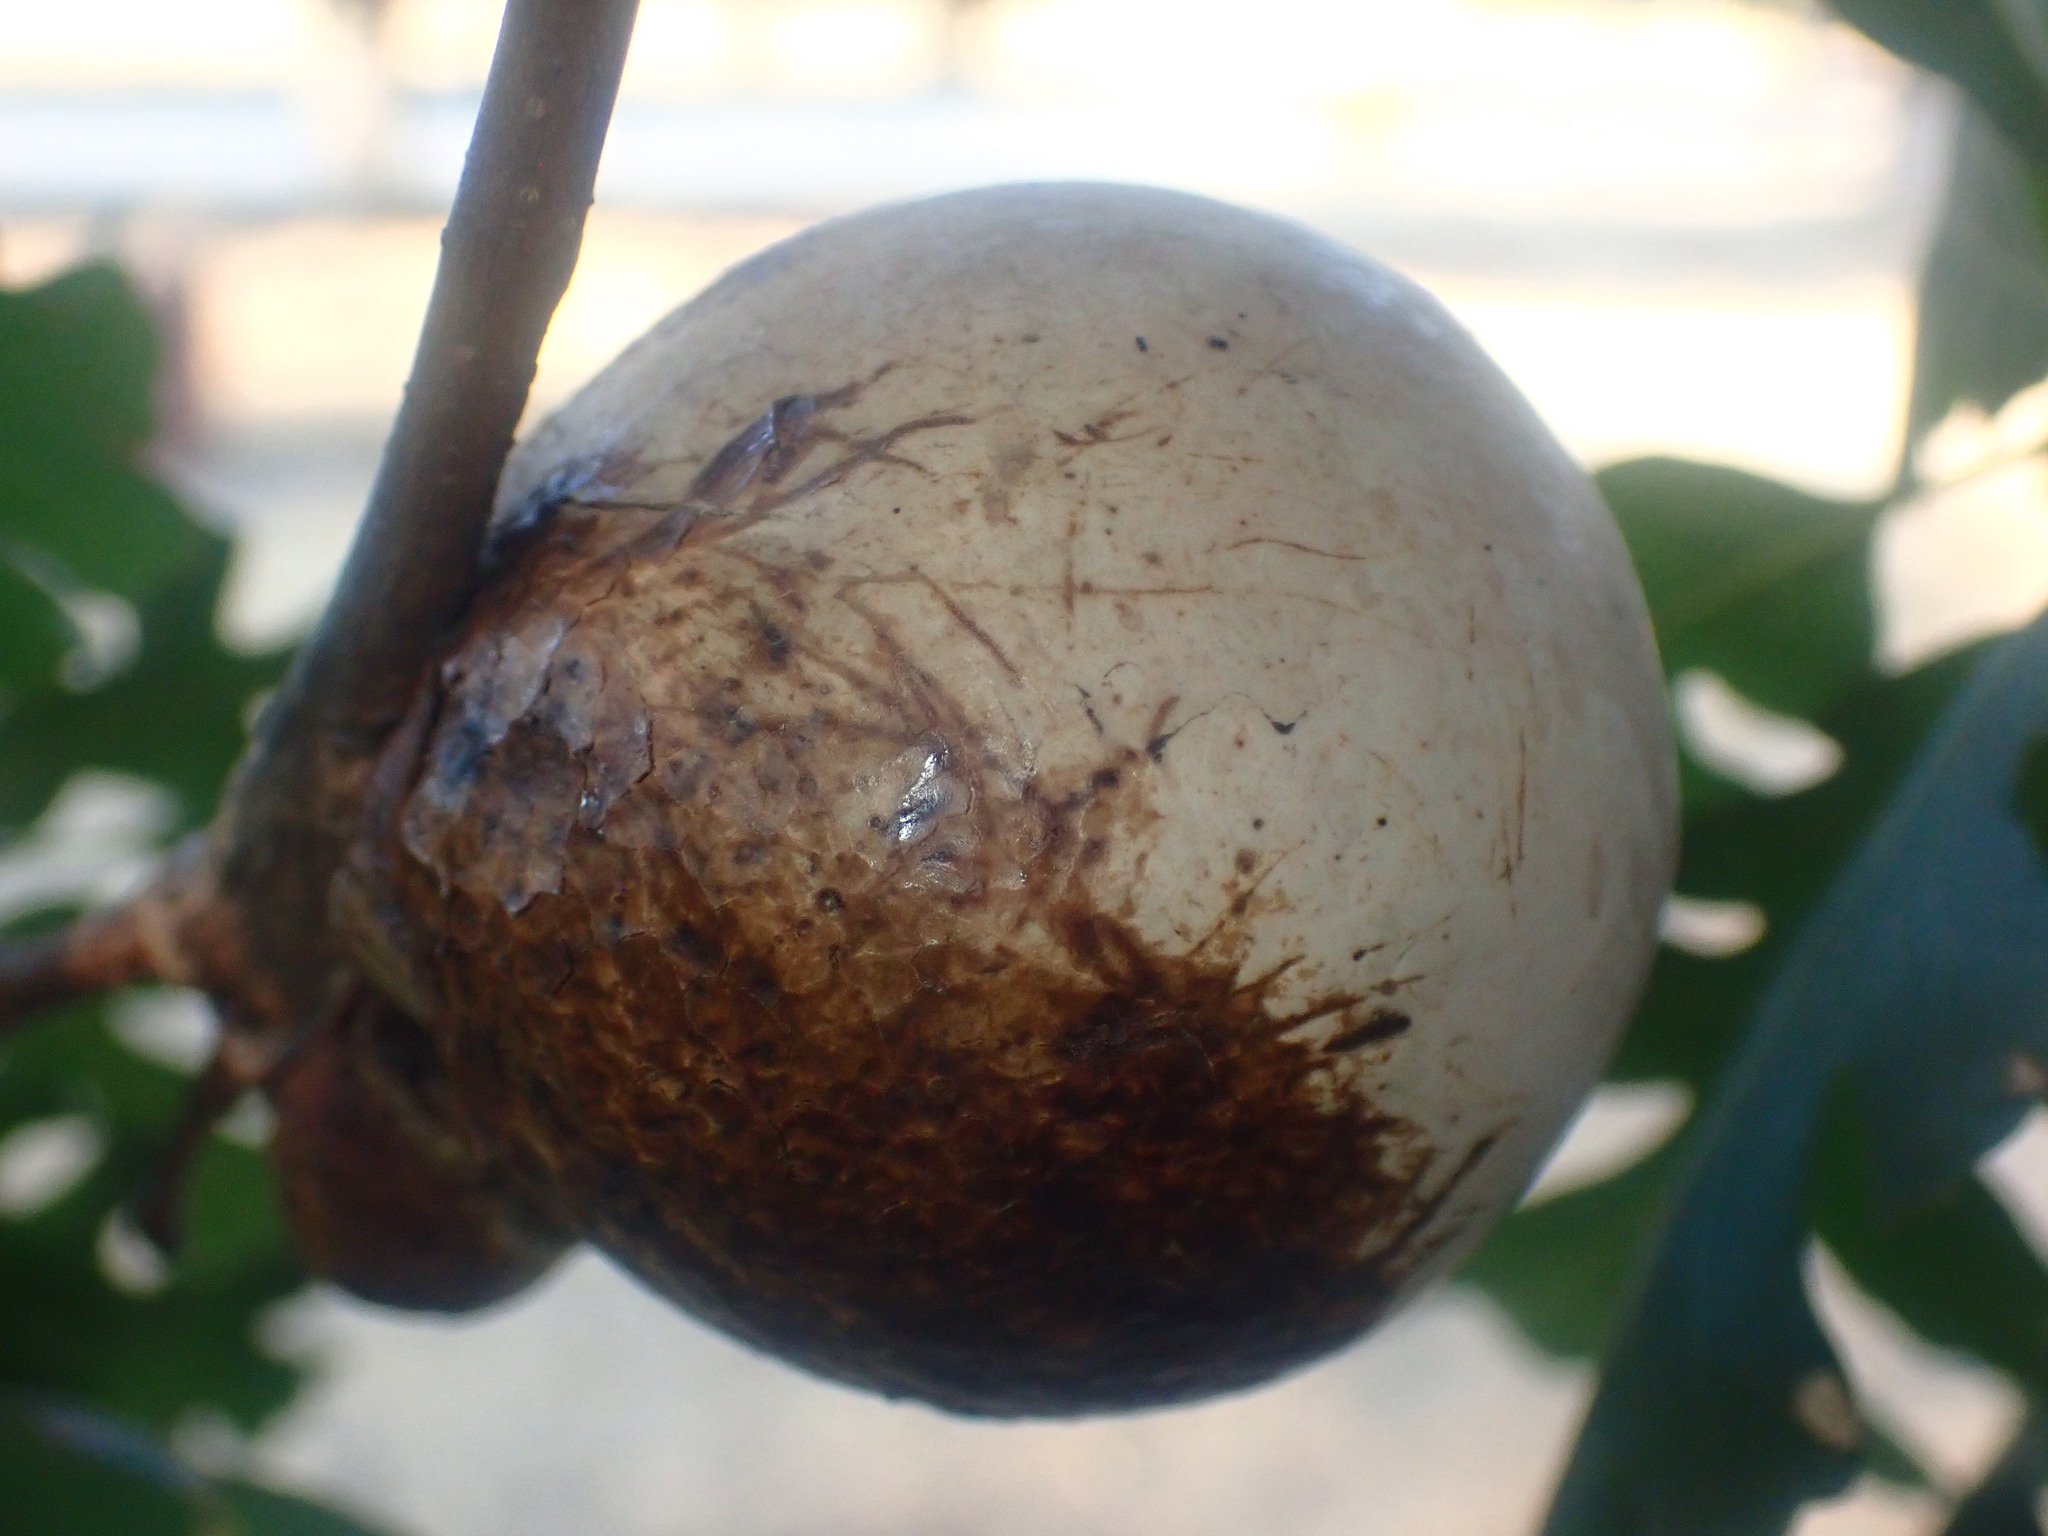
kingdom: Animalia
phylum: Arthropoda
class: Insecta
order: Hymenoptera
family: Cynipidae
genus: Andricus
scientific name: Andricus quercuscalifornicus
